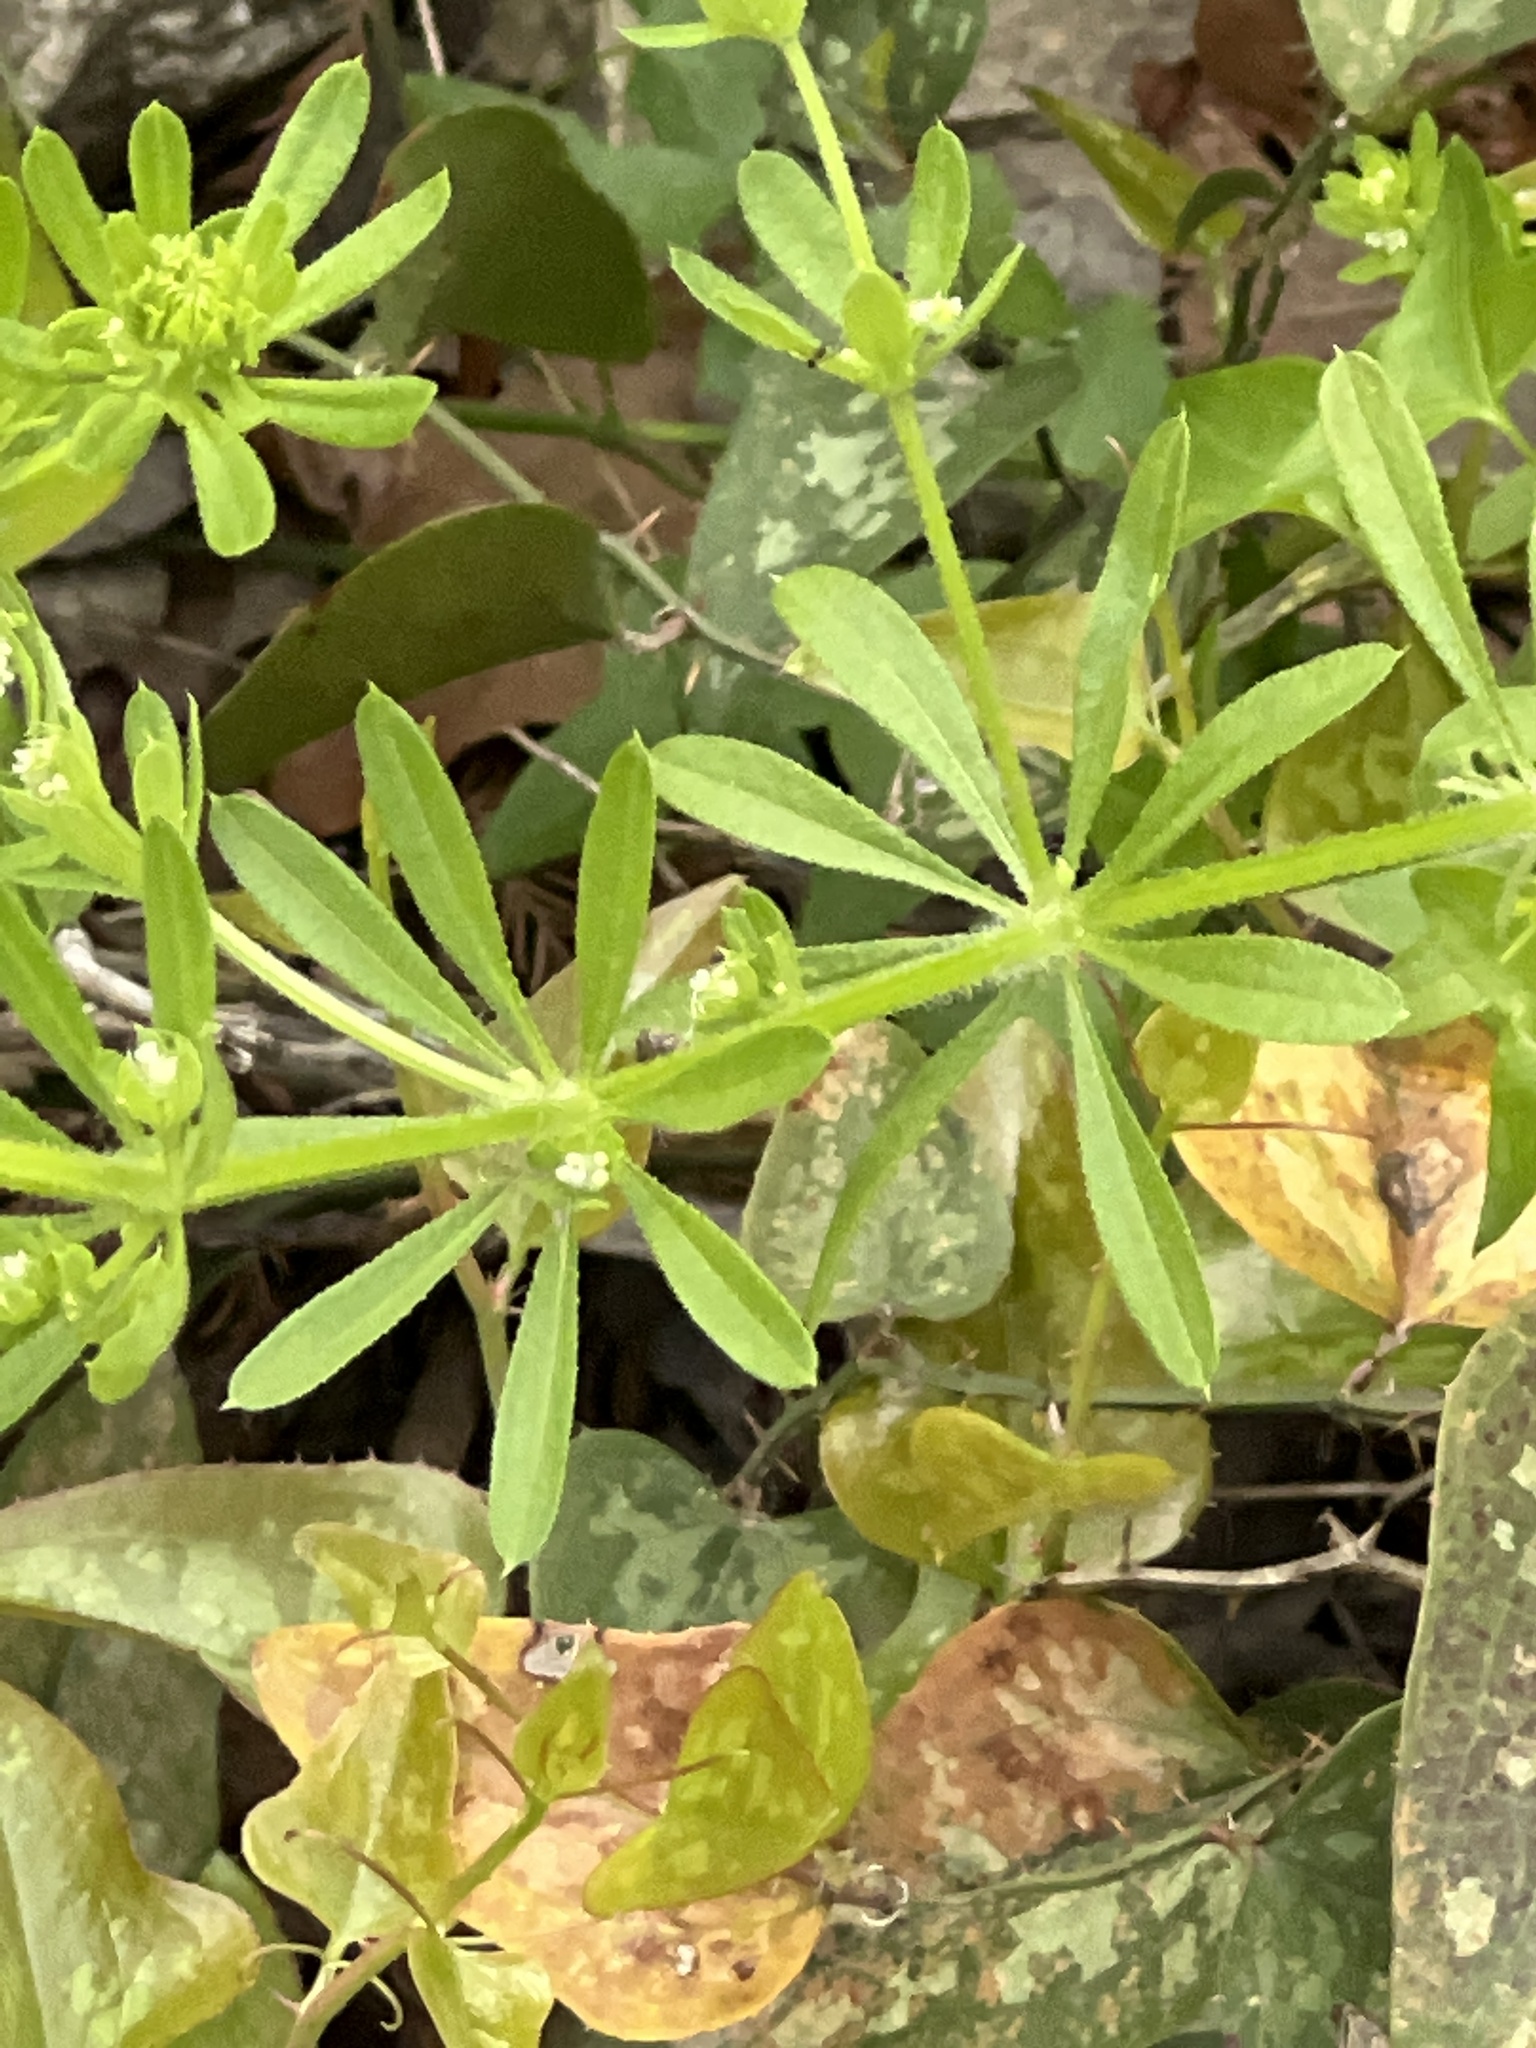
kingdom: Plantae
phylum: Tracheophyta
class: Magnoliopsida
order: Gentianales
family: Rubiaceae
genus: Galium
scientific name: Galium aparine
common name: Cleavers
